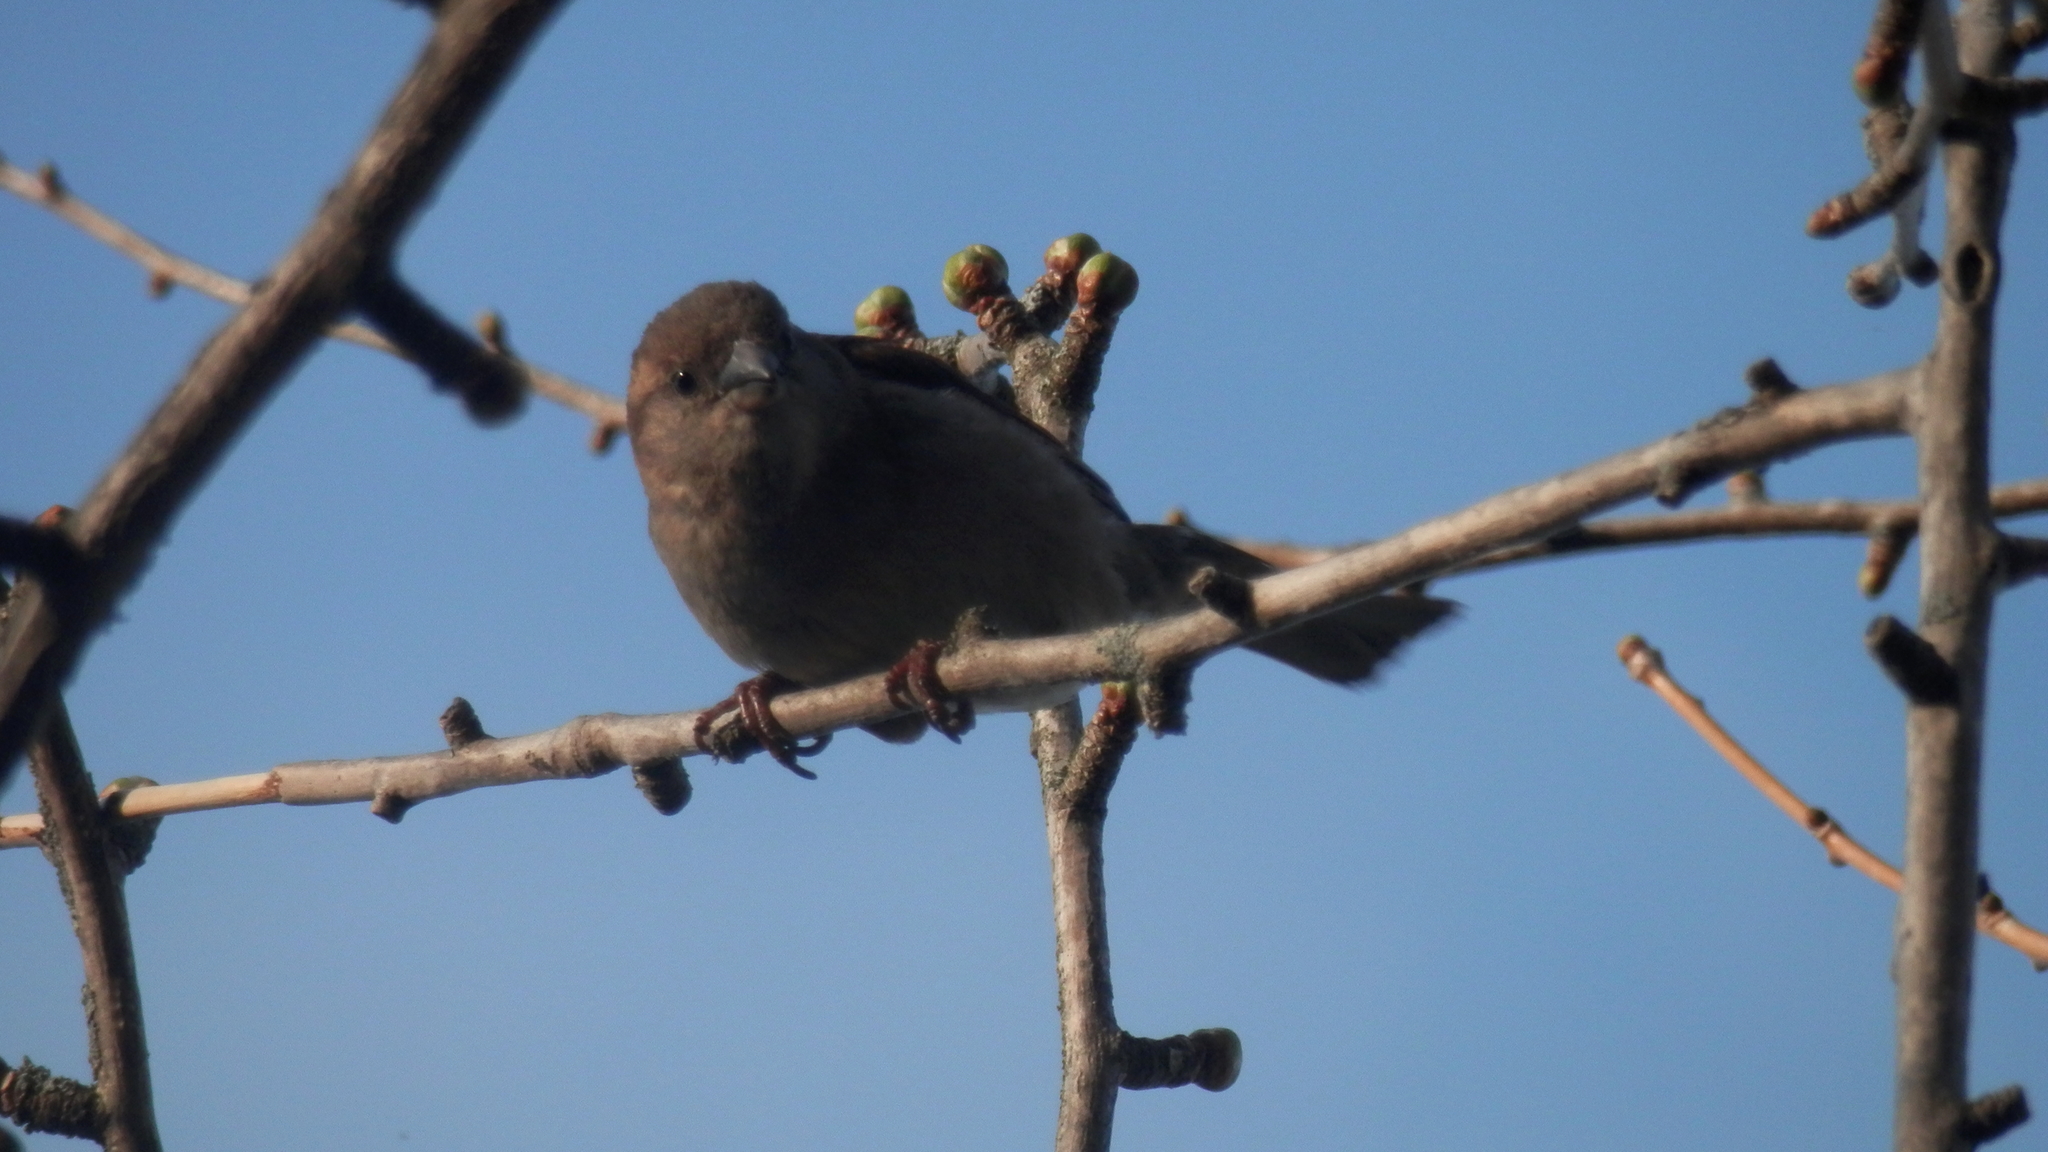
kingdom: Animalia
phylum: Chordata
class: Aves
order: Passeriformes
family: Passeridae
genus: Passer
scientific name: Passer domesticus
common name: House sparrow
